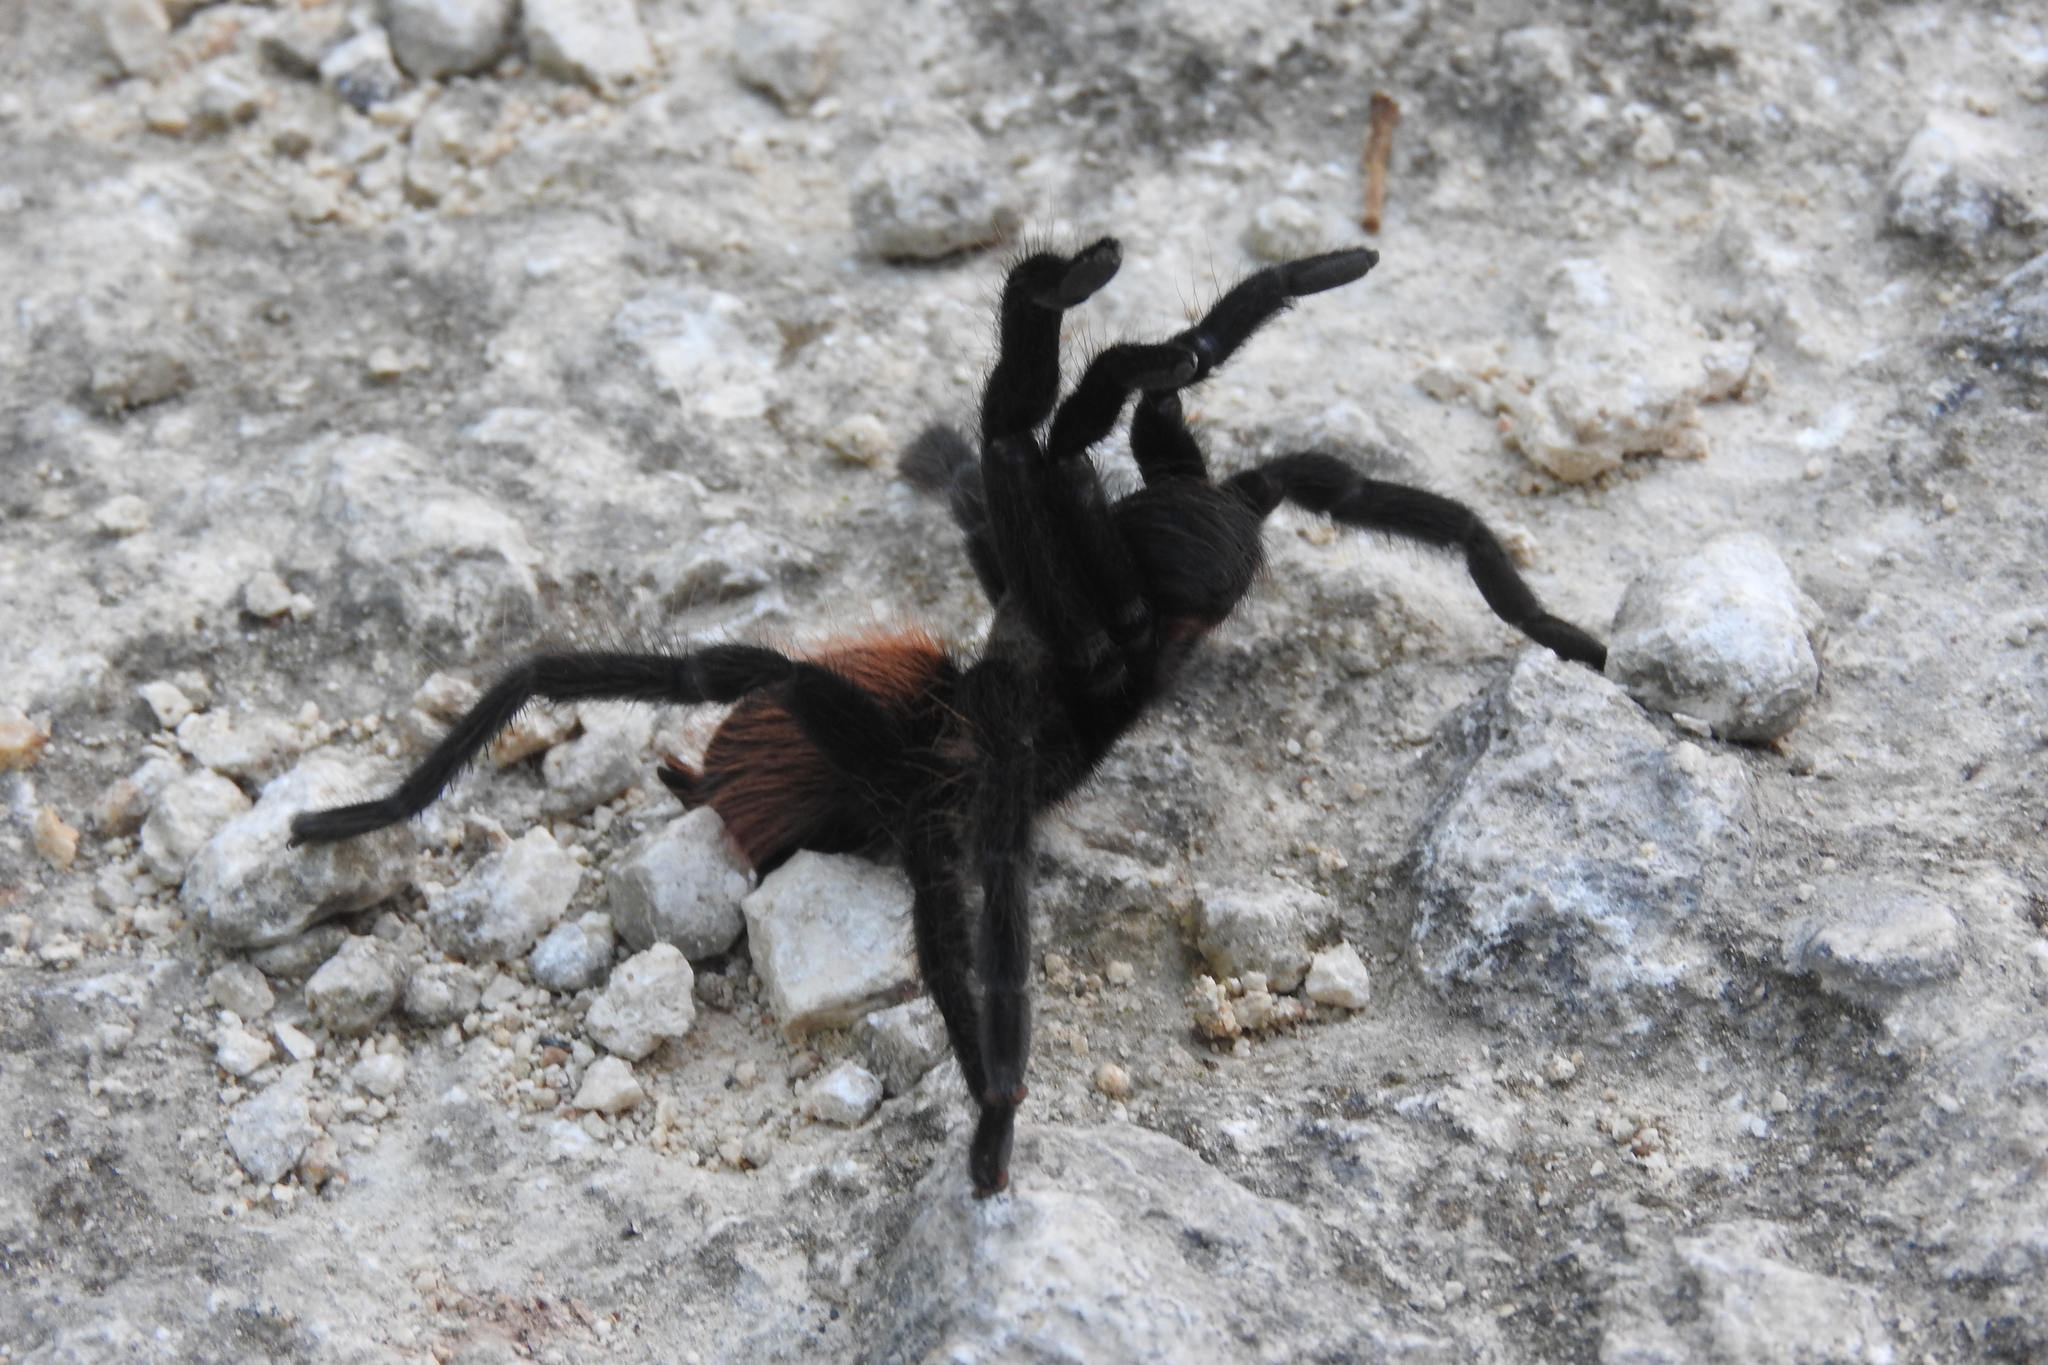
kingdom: Animalia
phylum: Arthropoda
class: Arachnida
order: Araneae
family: Theraphosidae
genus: Tliltocatl
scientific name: Tliltocatl epicureanus
